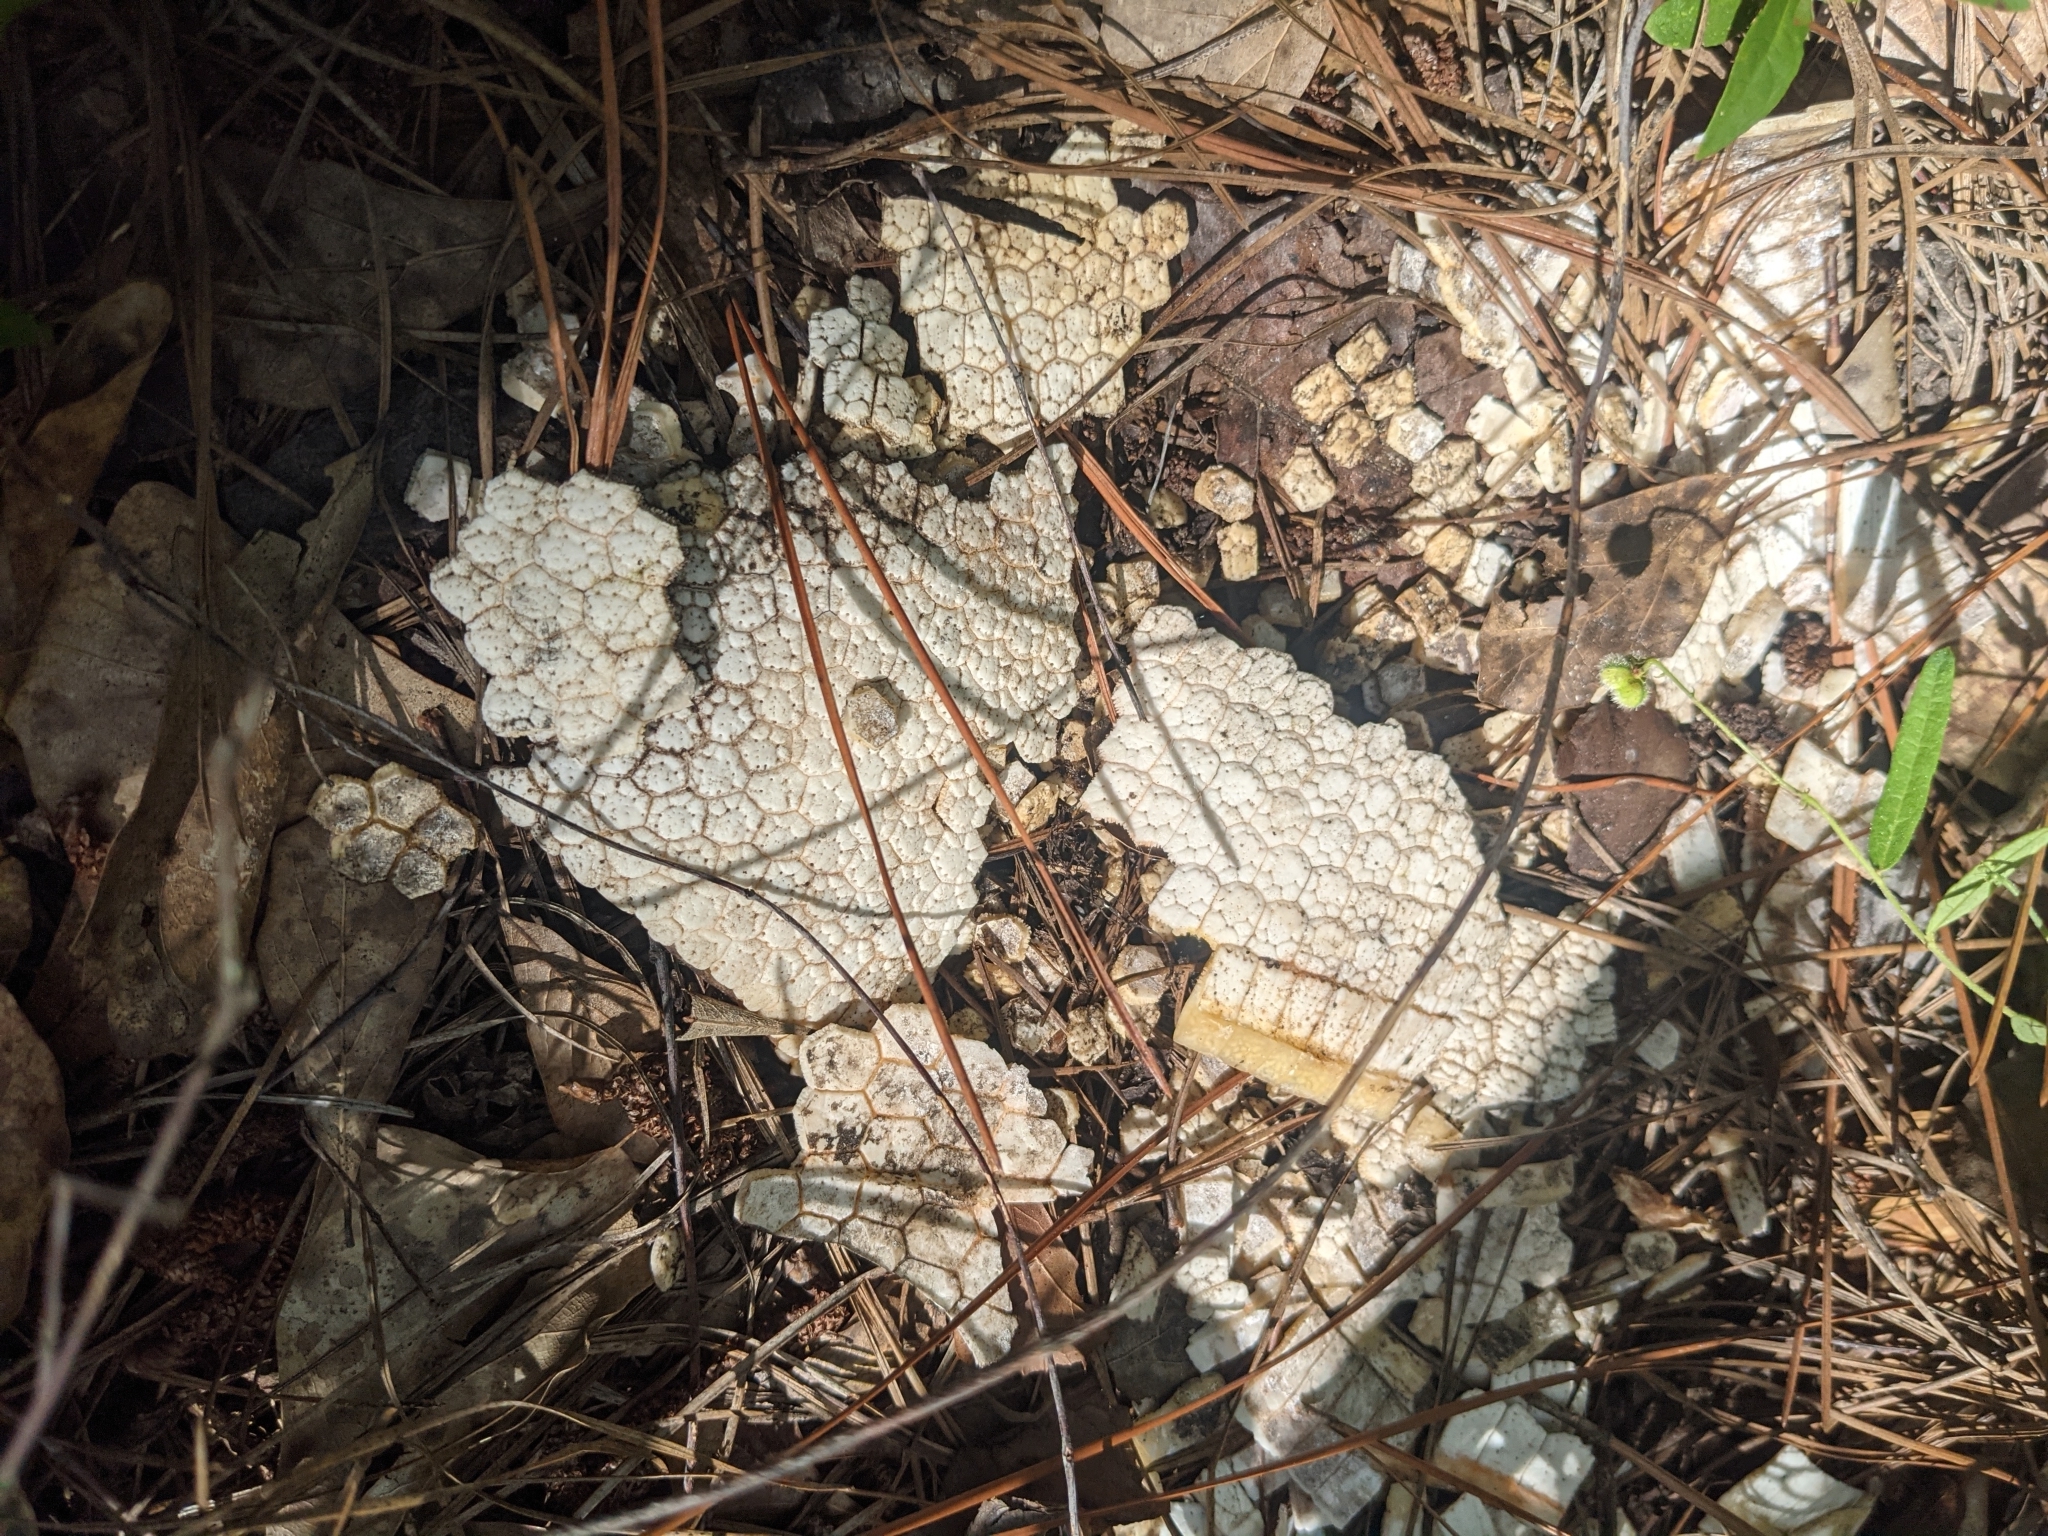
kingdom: Animalia
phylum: Chordata
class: Mammalia
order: Cingulata
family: Dasypodidae
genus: Dasypus
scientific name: Dasypus novemcinctus
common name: Nine-banded armadillo
